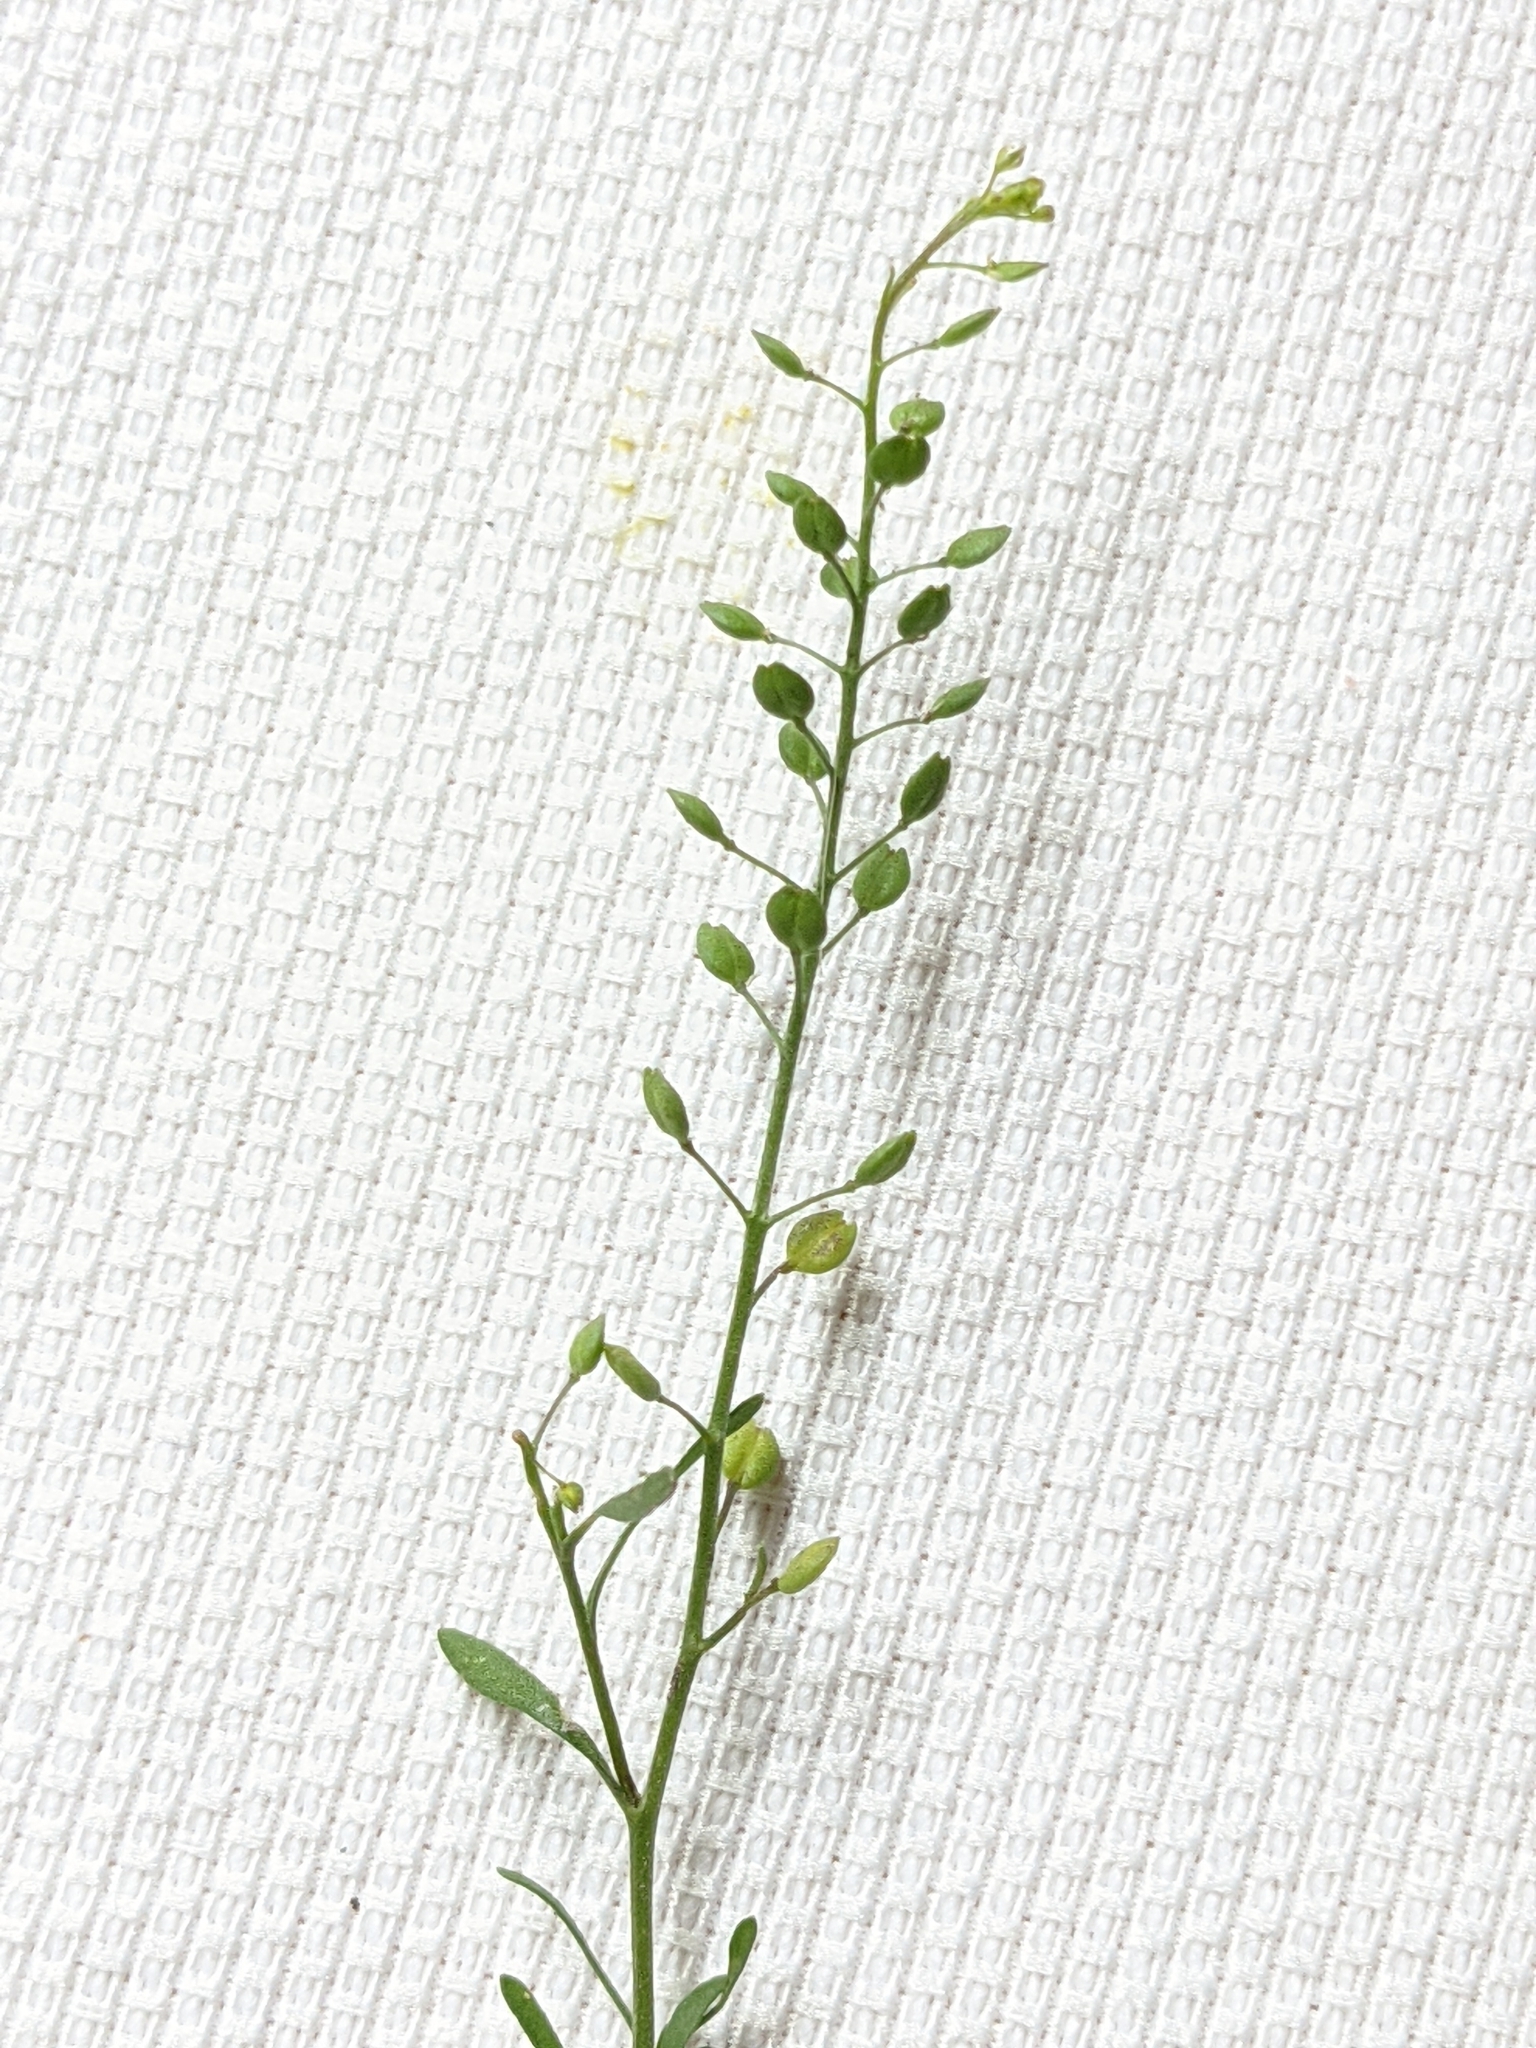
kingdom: Plantae
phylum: Tracheophyta
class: Magnoliopsida
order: Brassicales
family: Brassicaceae
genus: Lepidium
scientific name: Lepidium ruderale
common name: Narrow-leaved pepperwort
